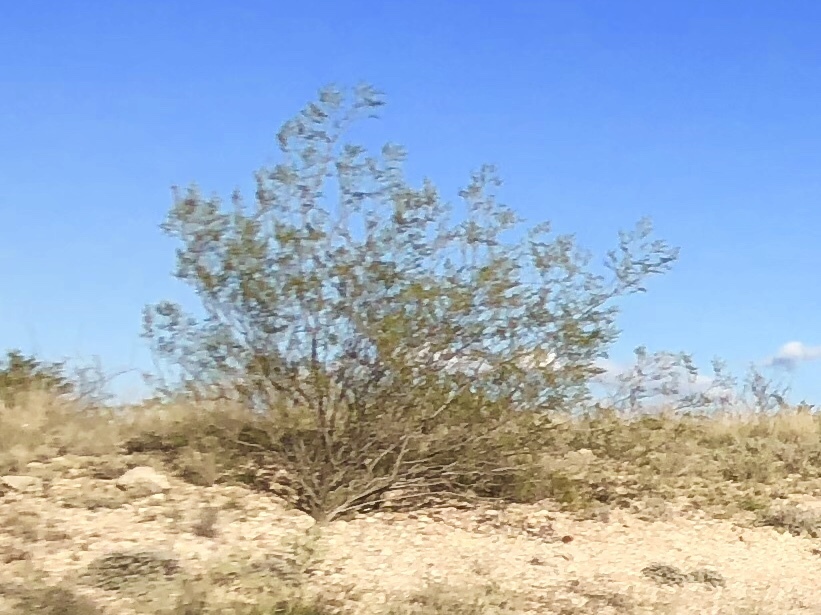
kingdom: Plantae
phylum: Tracheophyta
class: Magnoliopsida
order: Zygophyllales
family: Zygophyllaceae
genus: Larrea
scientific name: Larrea tridentata
